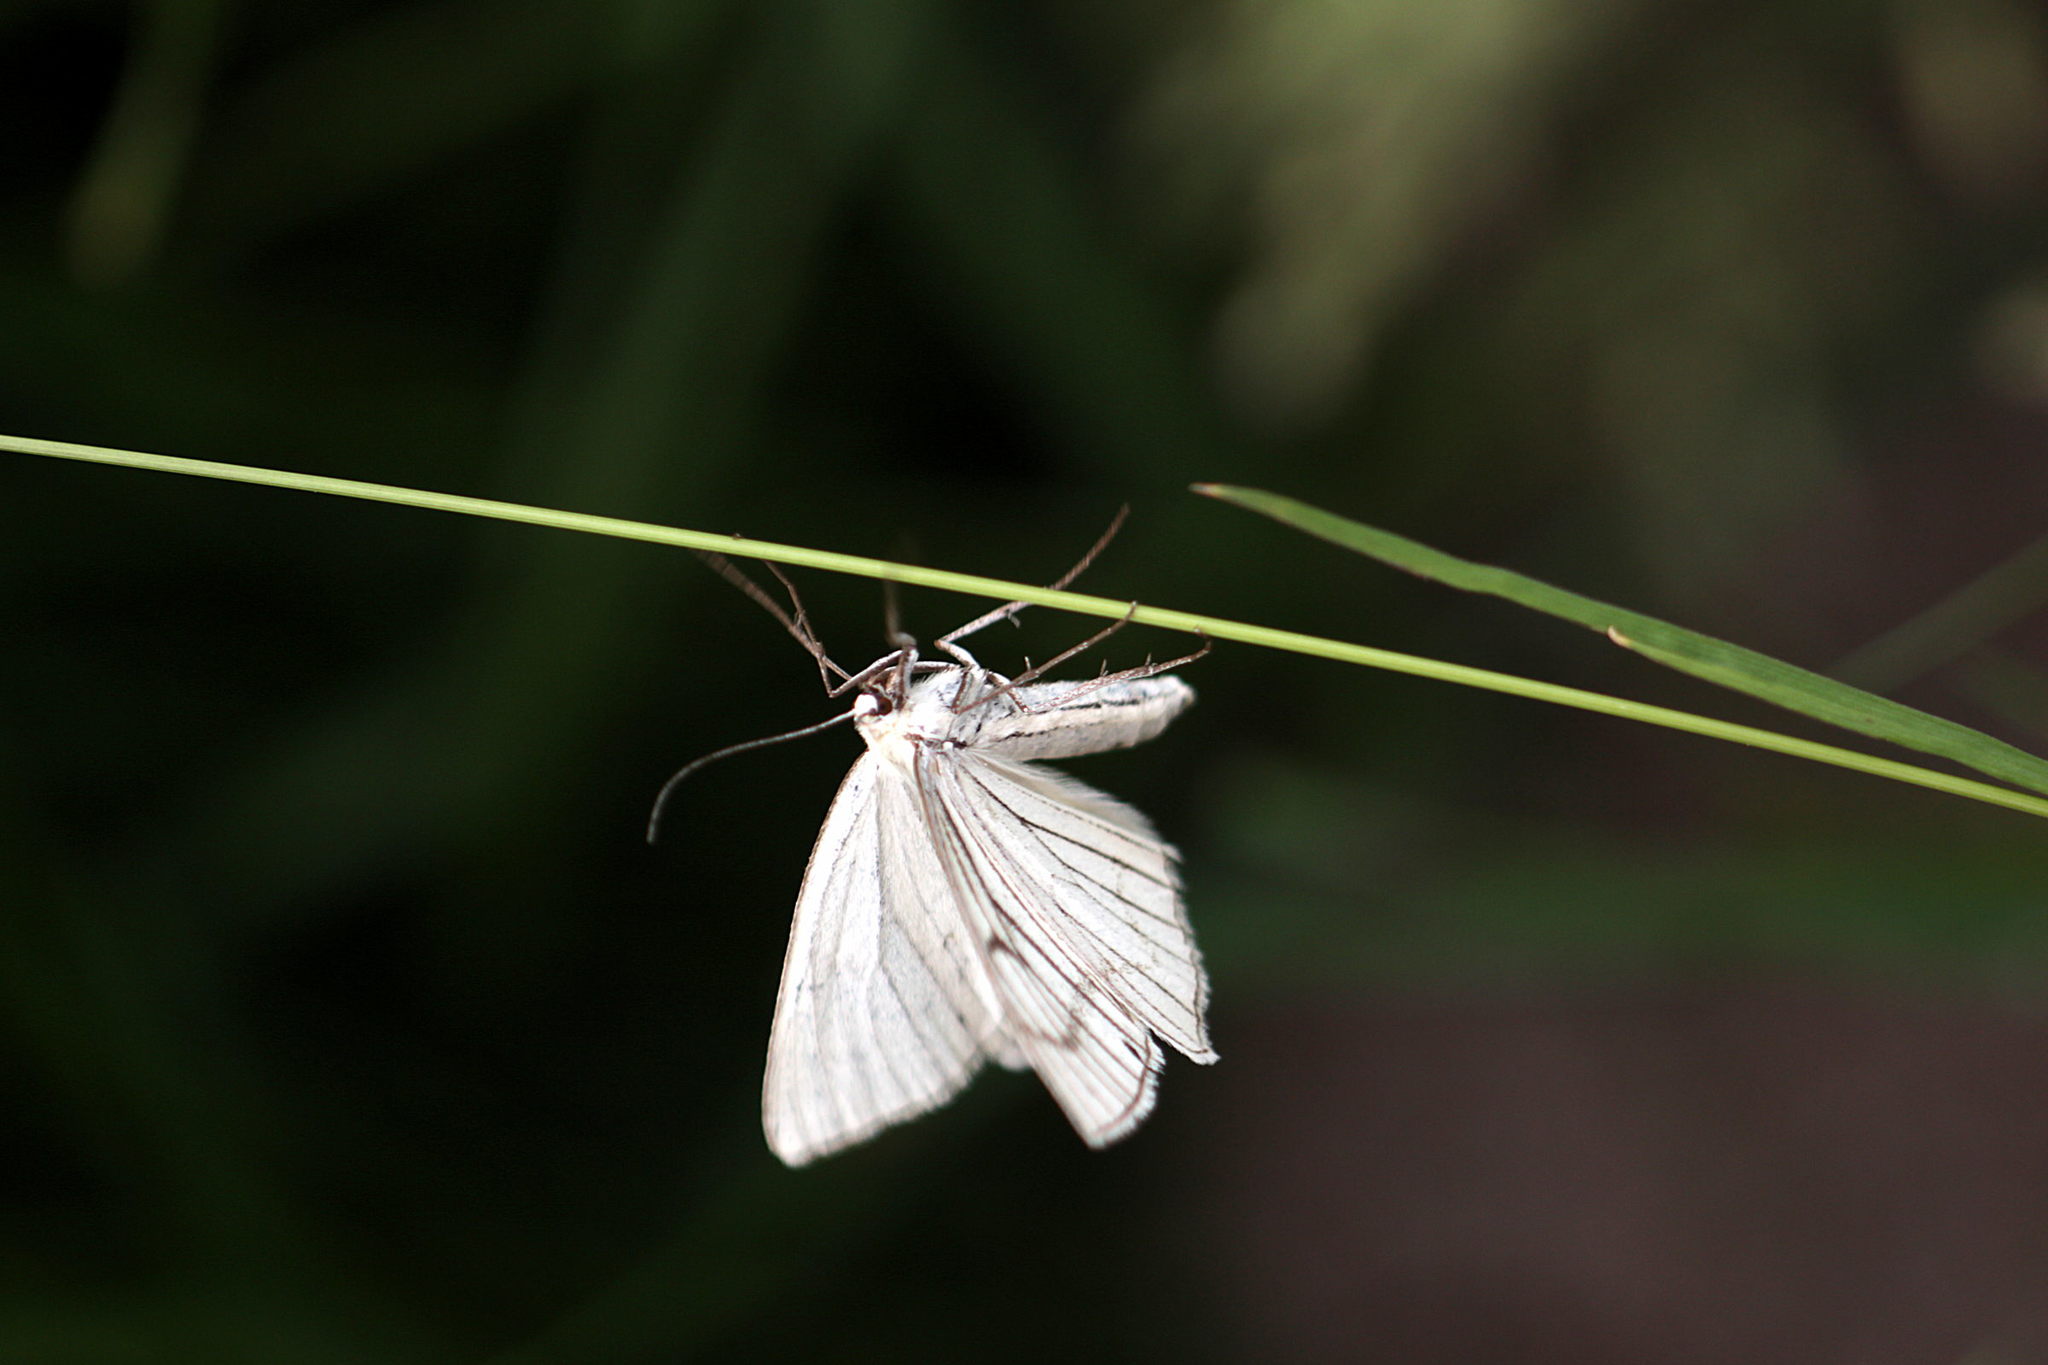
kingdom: Animalia
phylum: Arthropoda
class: Insecta
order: Lepidoptera
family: Geometridae
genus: Siona
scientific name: Siona lineata
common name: Black-veined moth
